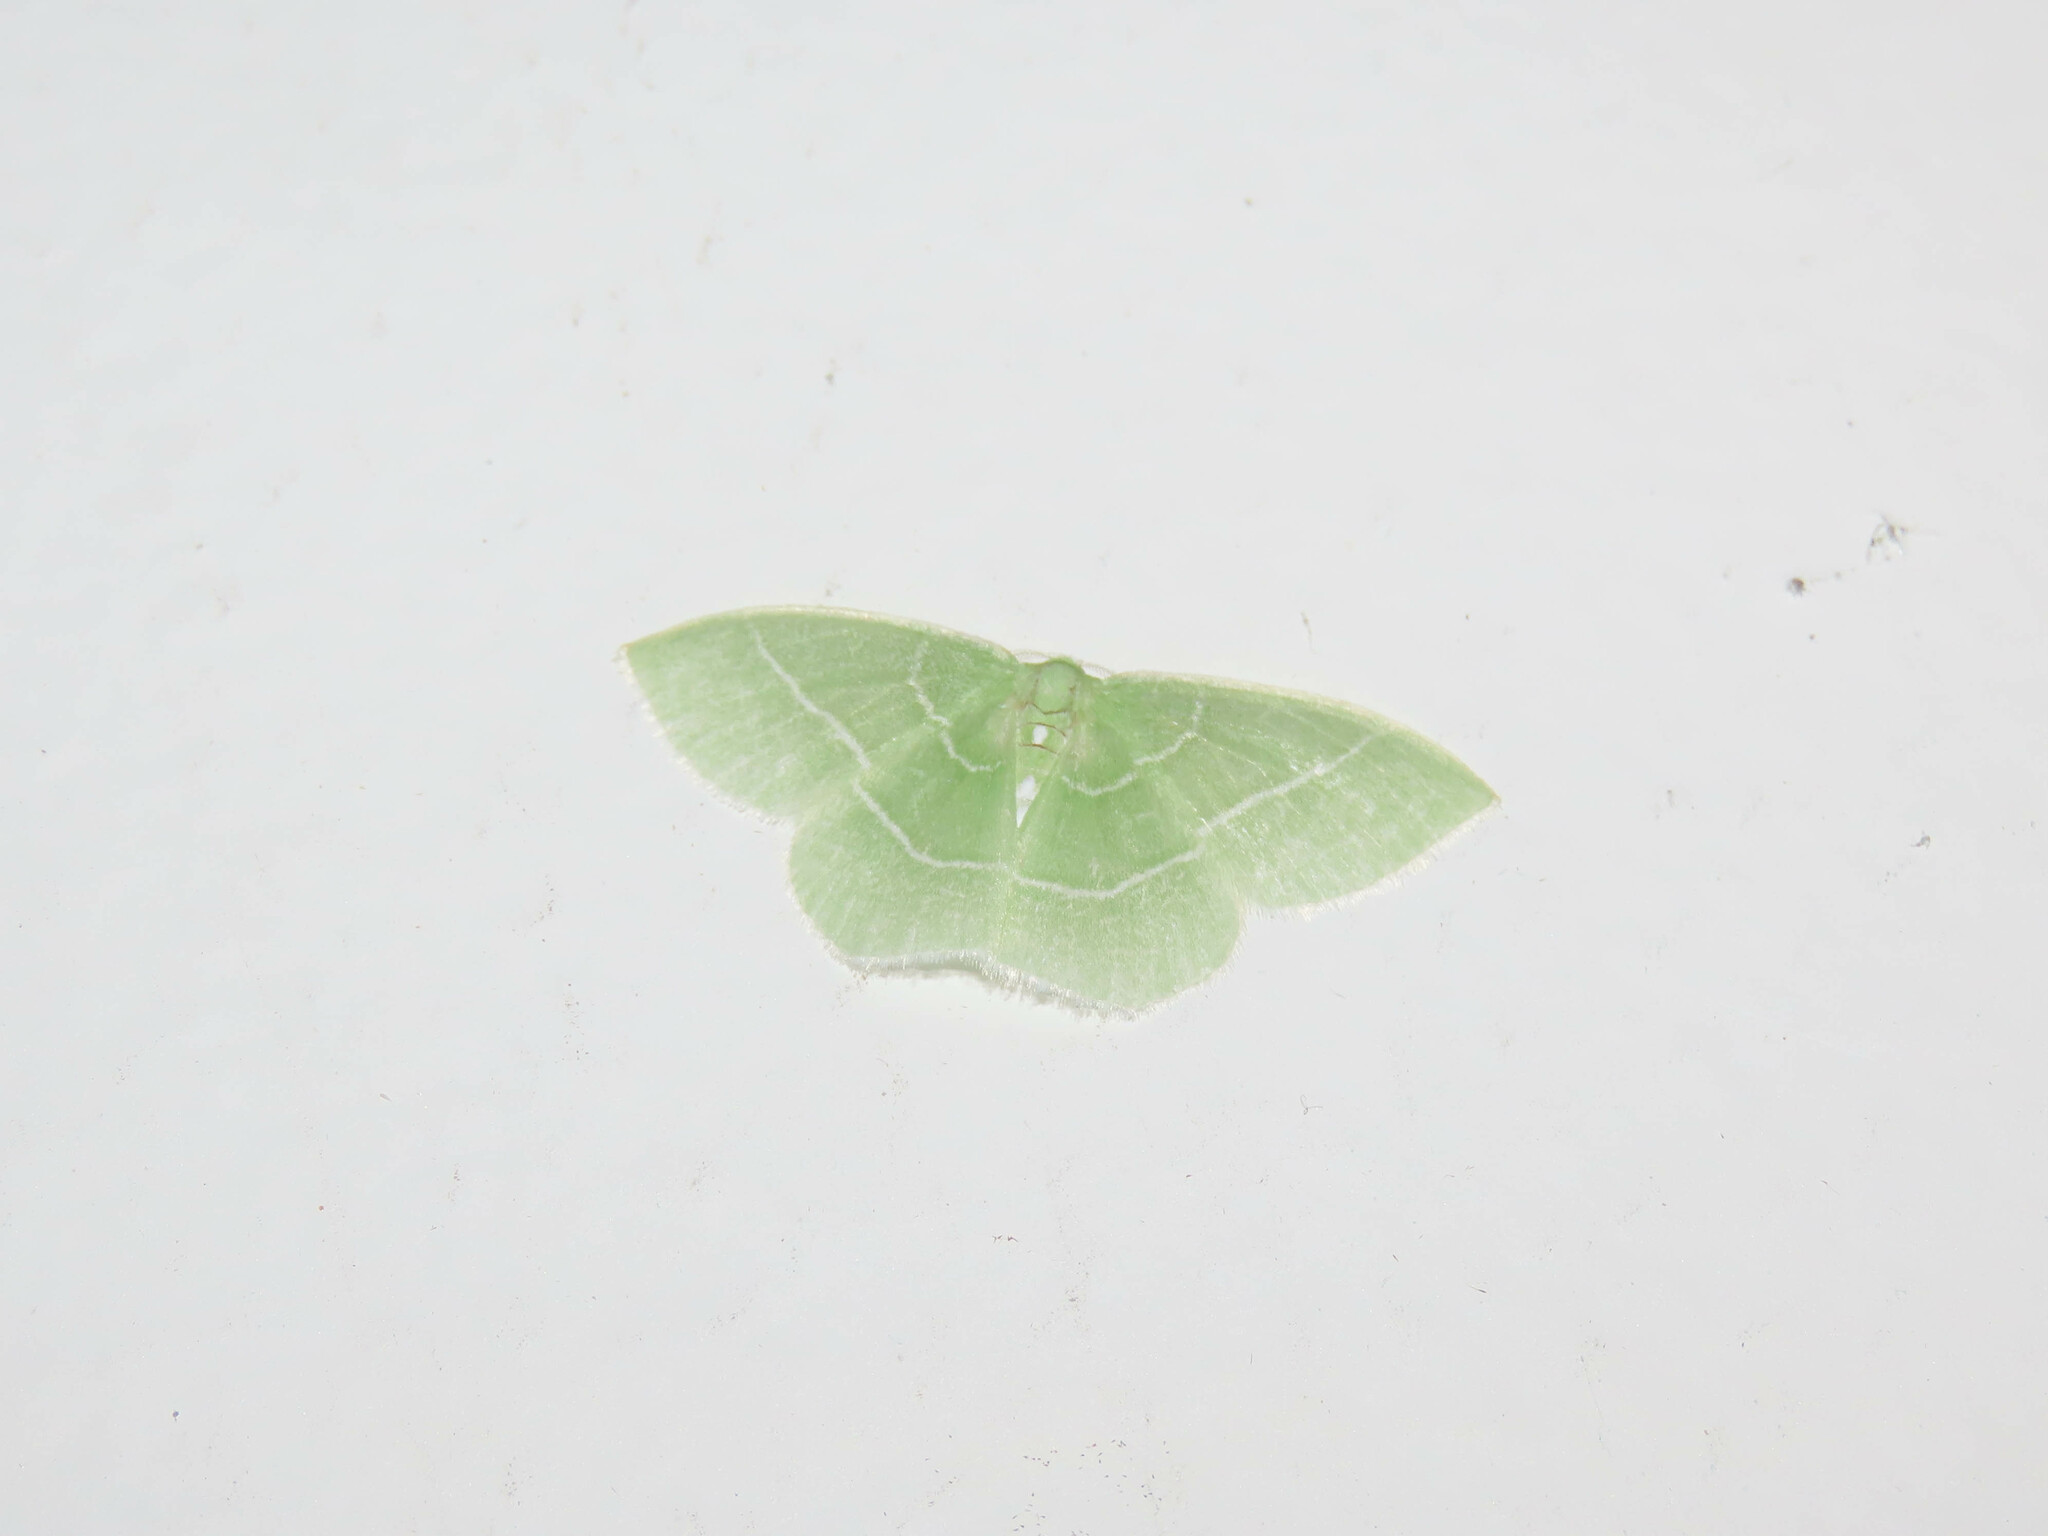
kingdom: Animalia
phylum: Arthropoda
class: Insecta
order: Lepidoptera
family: Geometridae
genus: Nemoria
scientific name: Nemoria mimosaria
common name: White-fringed emerald
